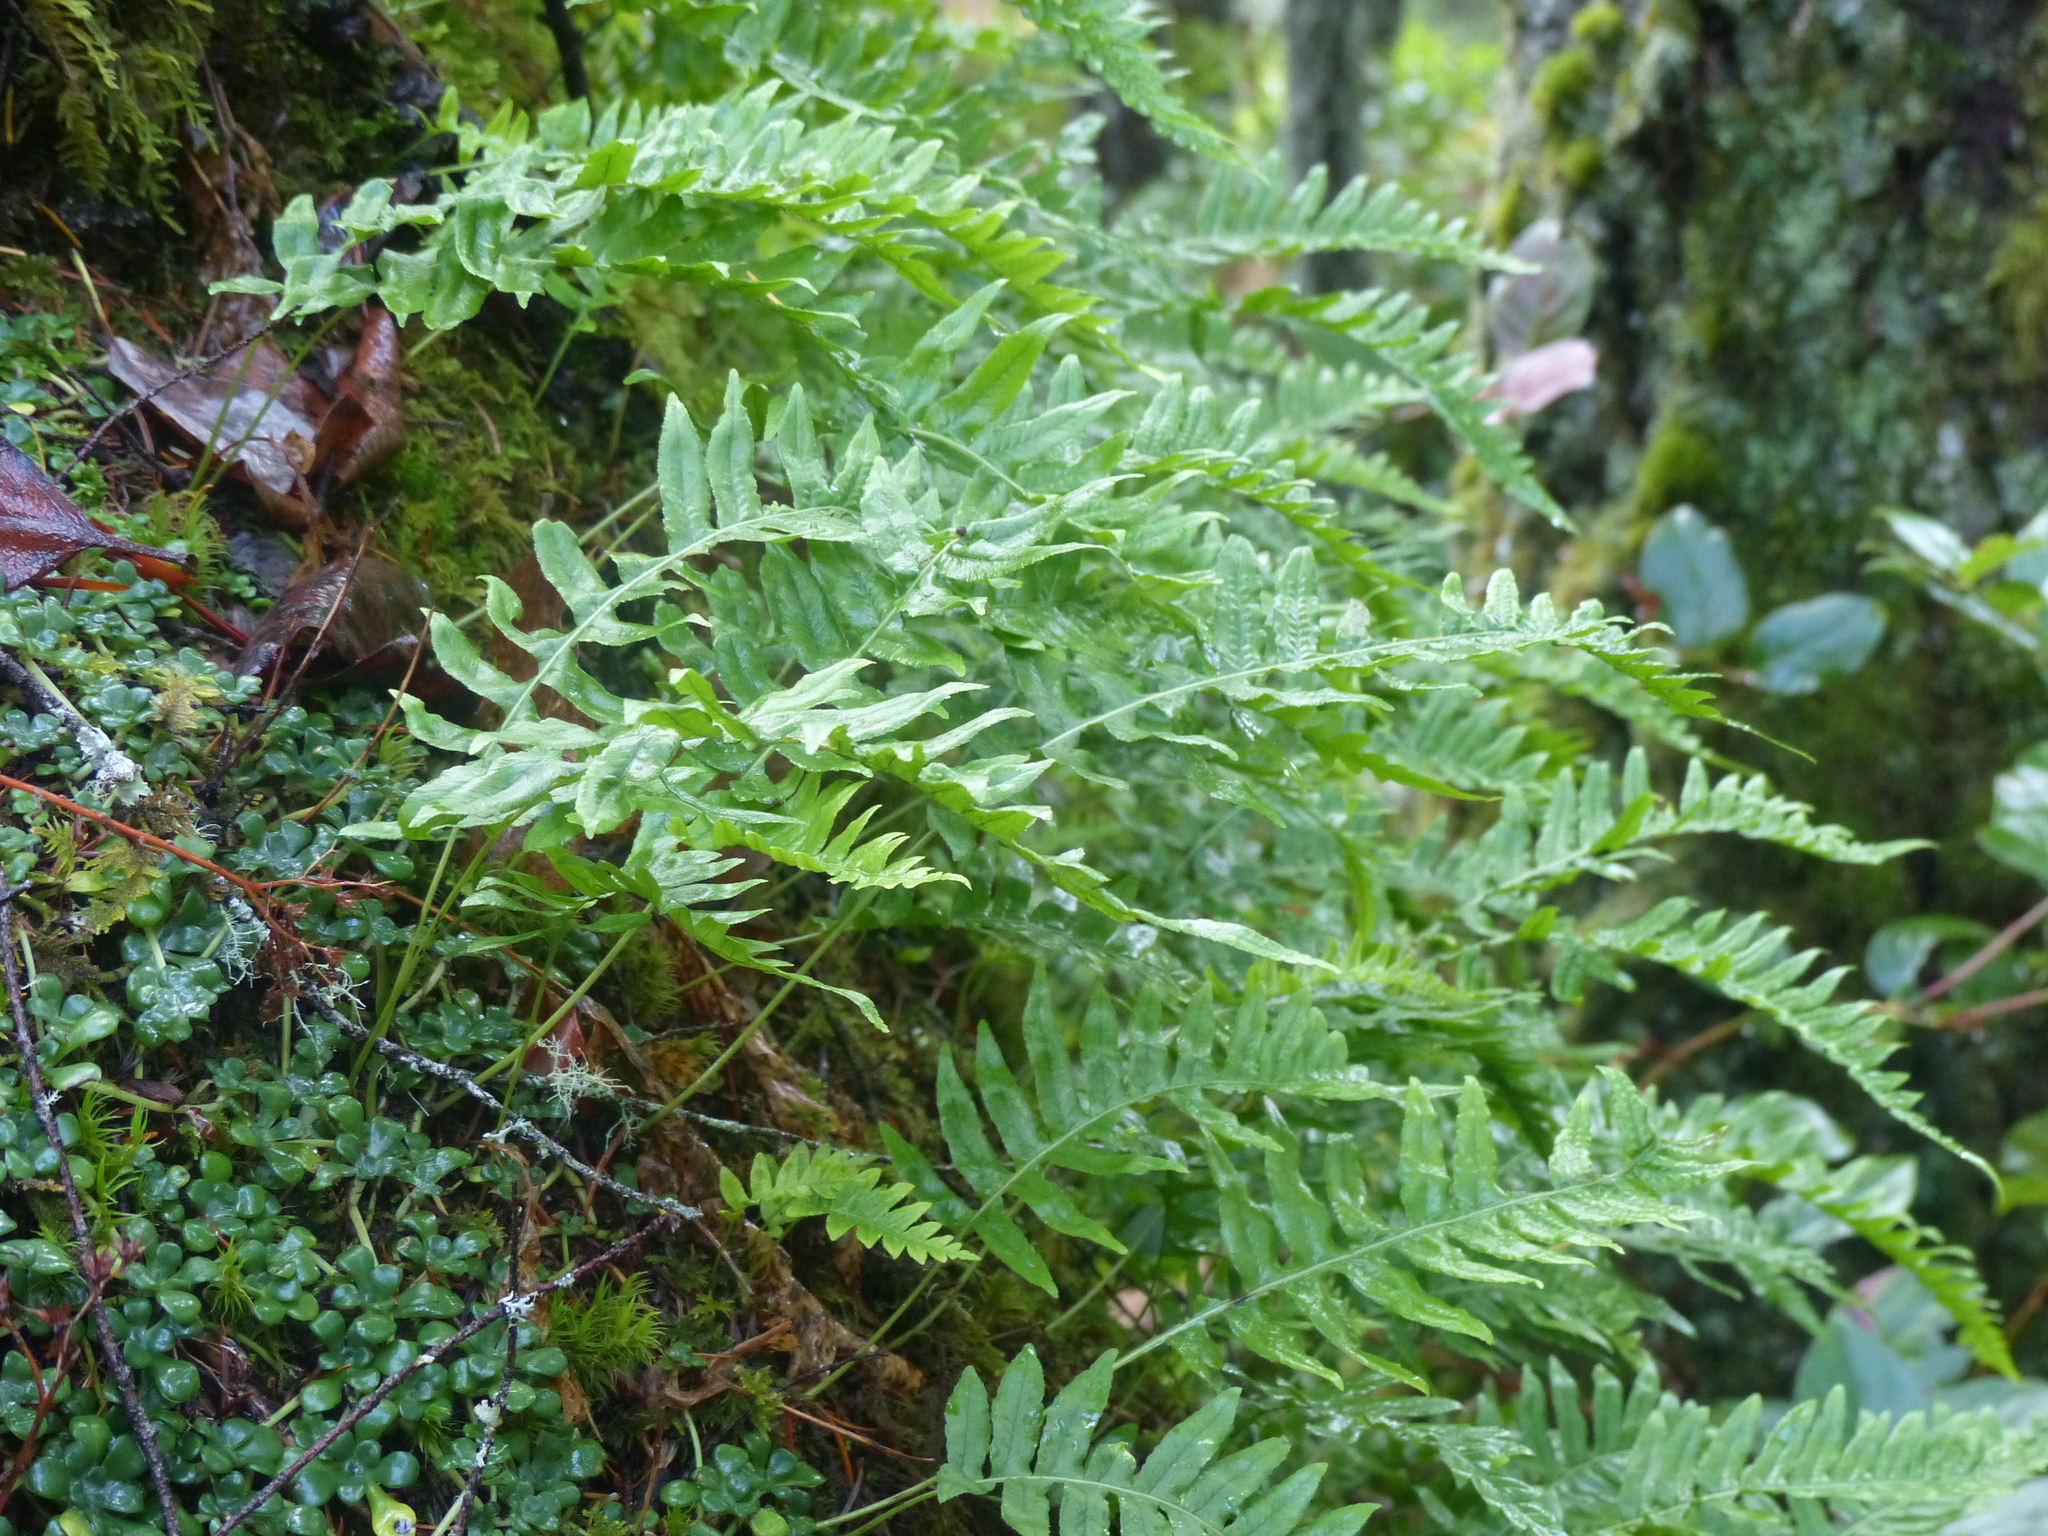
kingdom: Plantae
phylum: Tracheophyta
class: Polypodiopsida
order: Polypodiales
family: Polypodiaceae
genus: Polypodium
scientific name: Polypodium glycyrrhiza
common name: Licorice fern
